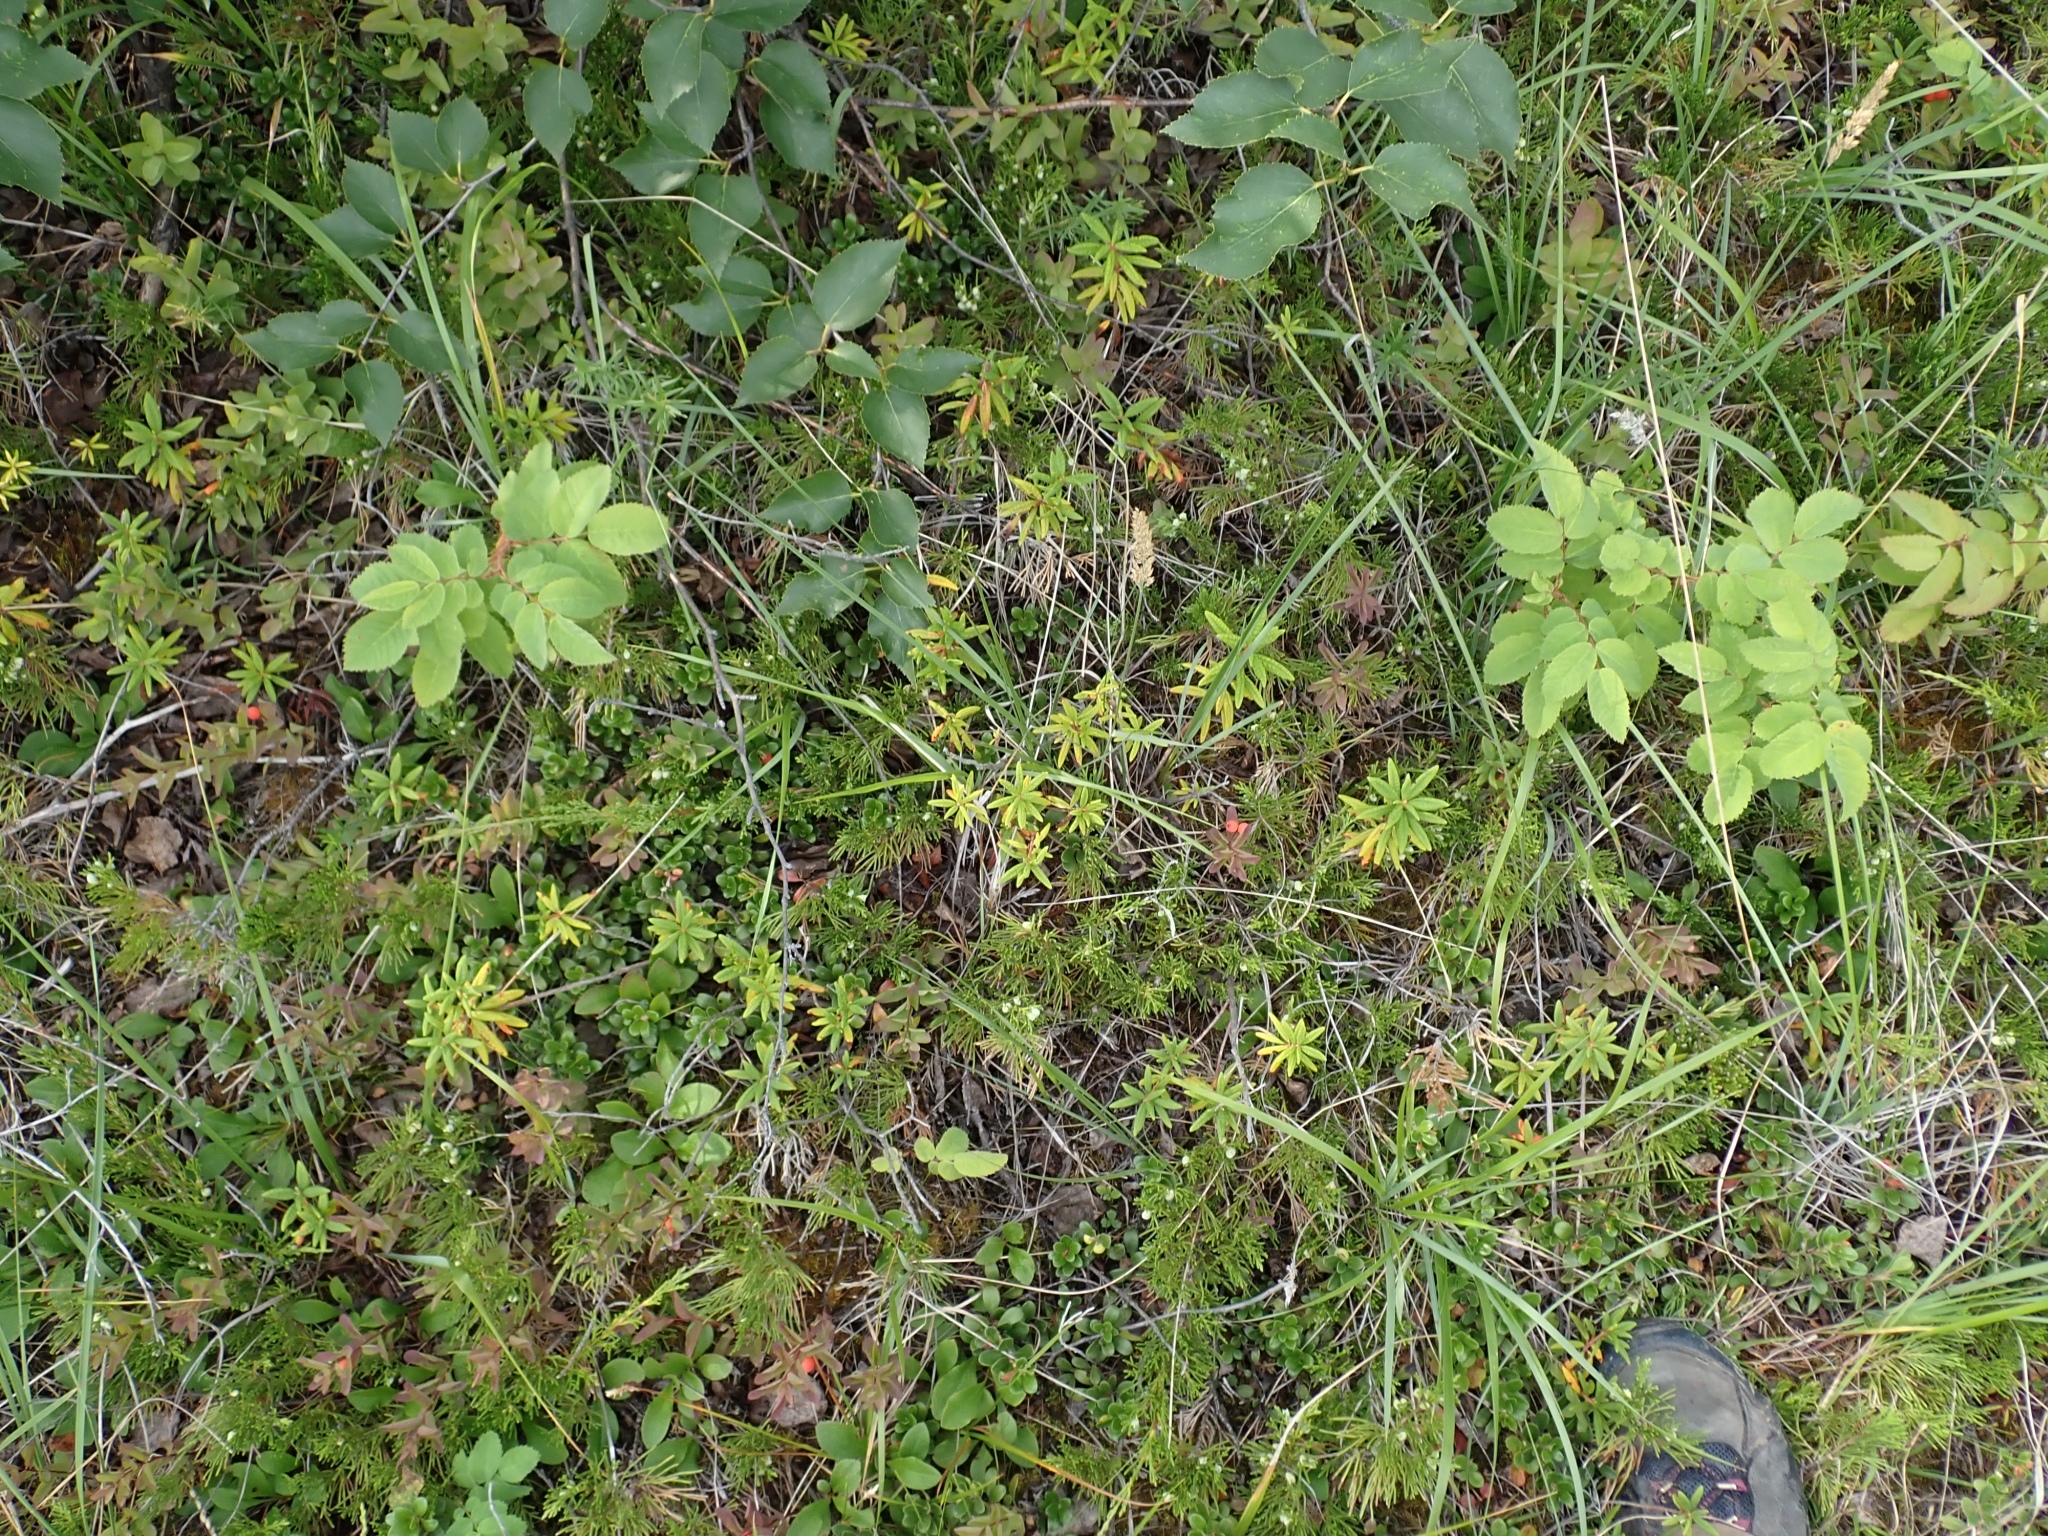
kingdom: Plantae
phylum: Tracheophyta
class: Magnoliopsida
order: Ericales
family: Ericaceae
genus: Rhododendron
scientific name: Rhododendron groenlandicum
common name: Bog labrador tea
